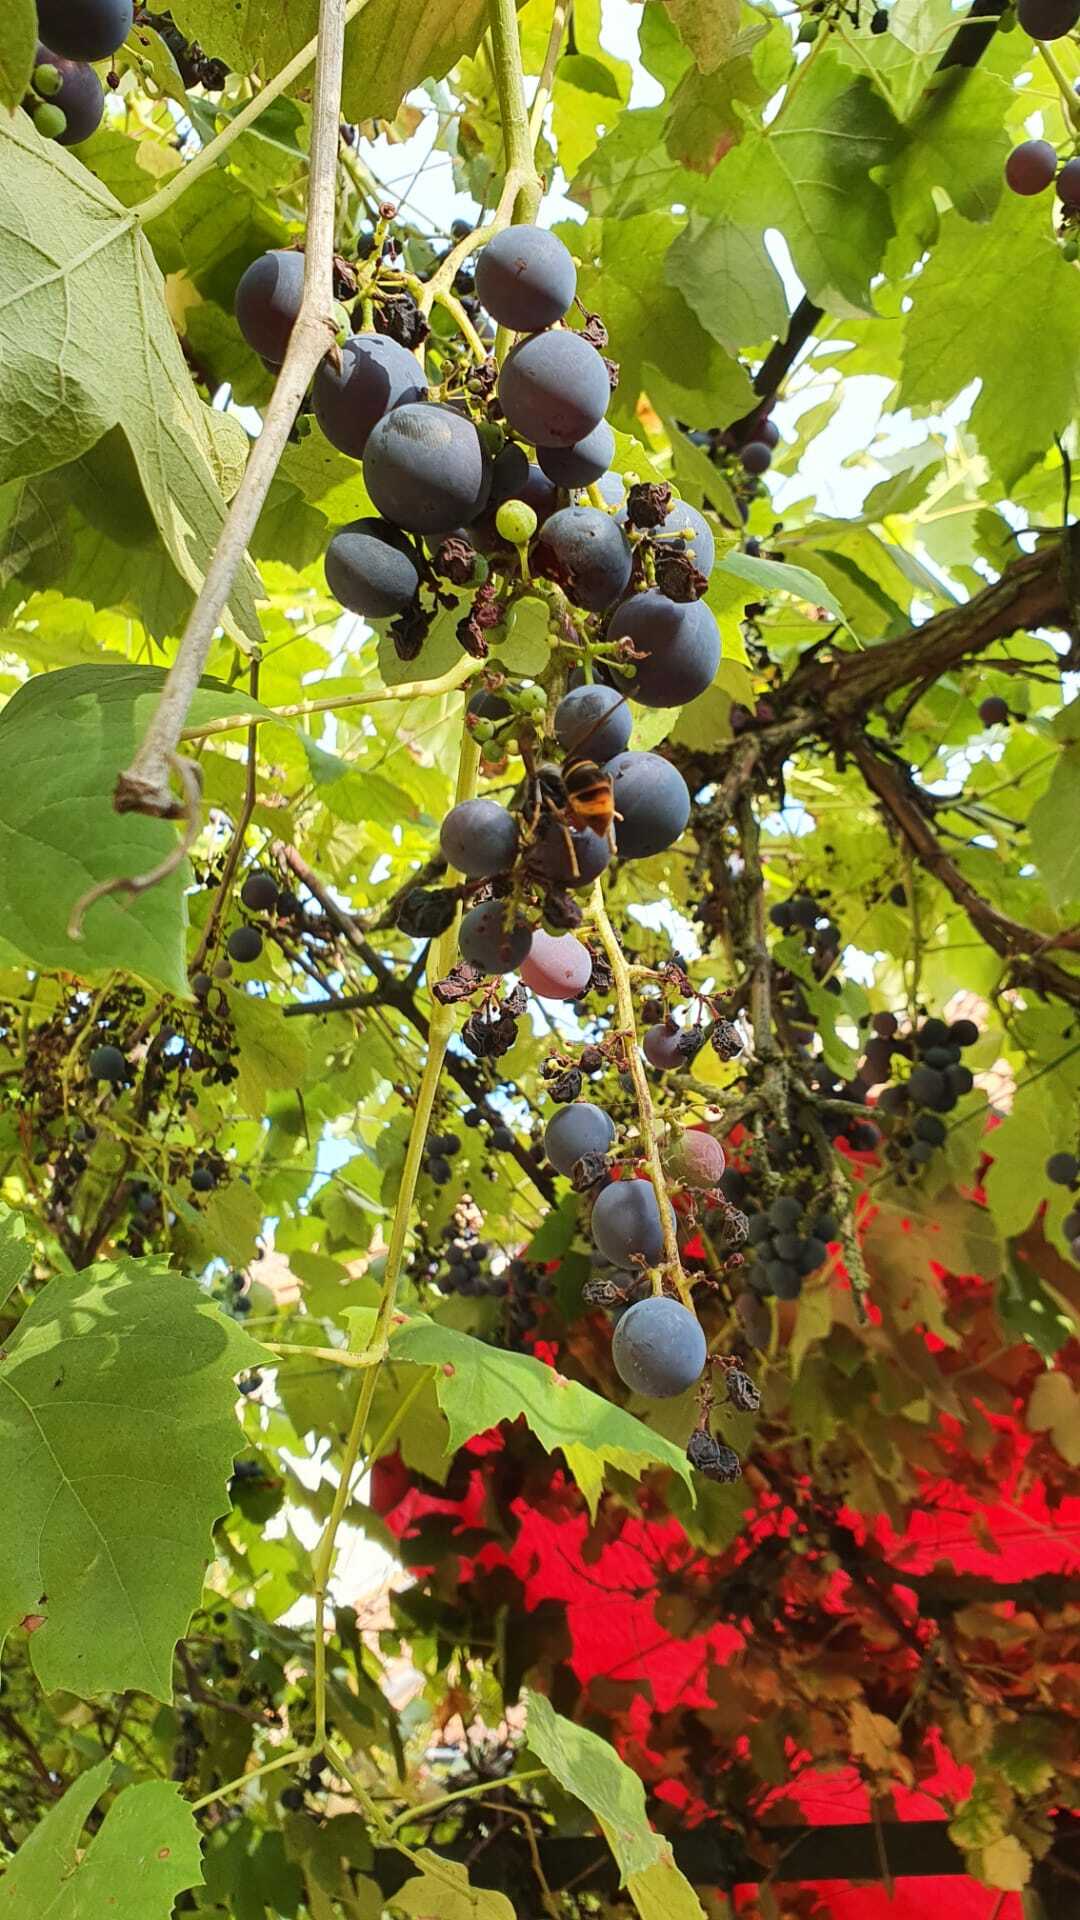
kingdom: Animalia
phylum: Arthropoda
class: Insecta
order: Hymenoptera
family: Vespidae
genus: Vespa
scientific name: Vespa velutina
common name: Asian hornet
